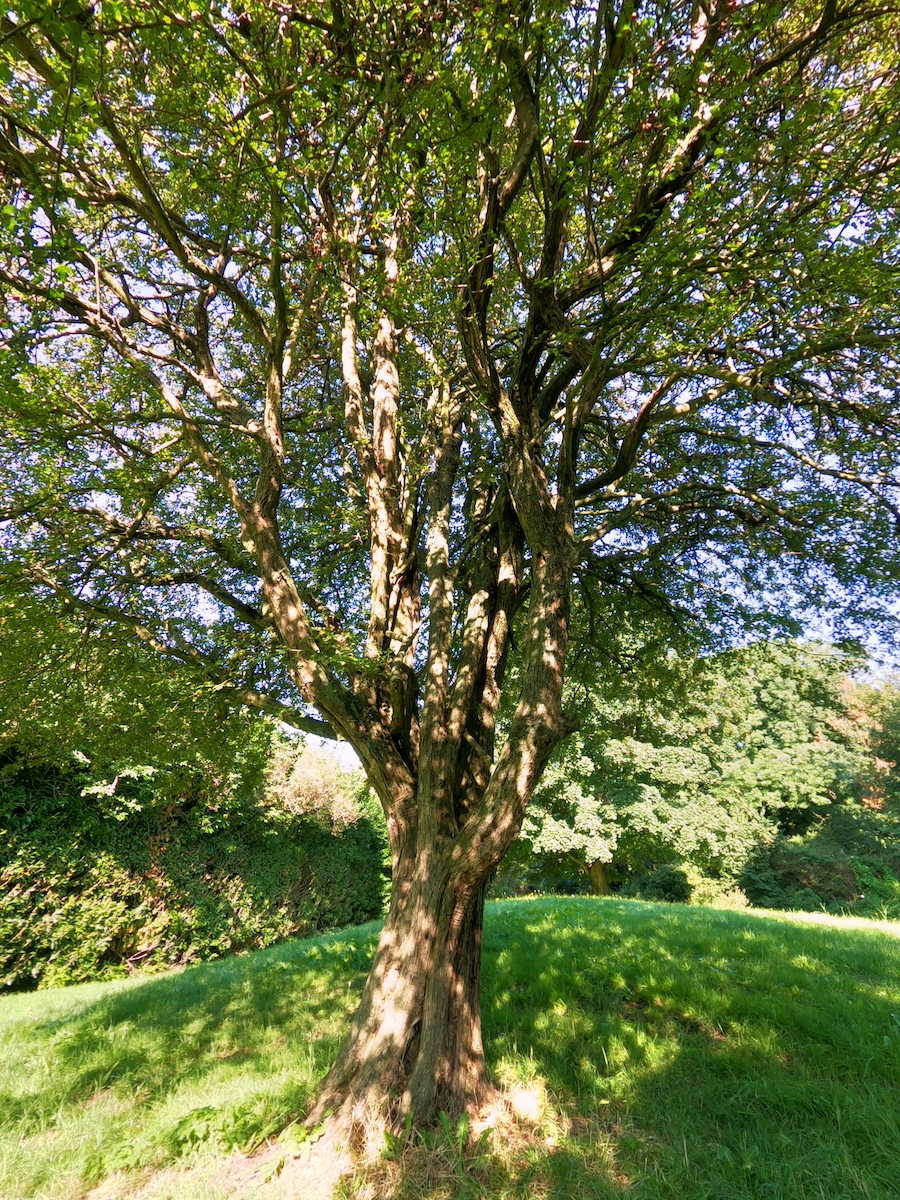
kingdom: Plantae
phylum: Tracheophyta
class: Magnoliopsida
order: Rosales
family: Rosaceae
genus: Crataegus
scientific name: Crataegus monogyna
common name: Hawthorn
